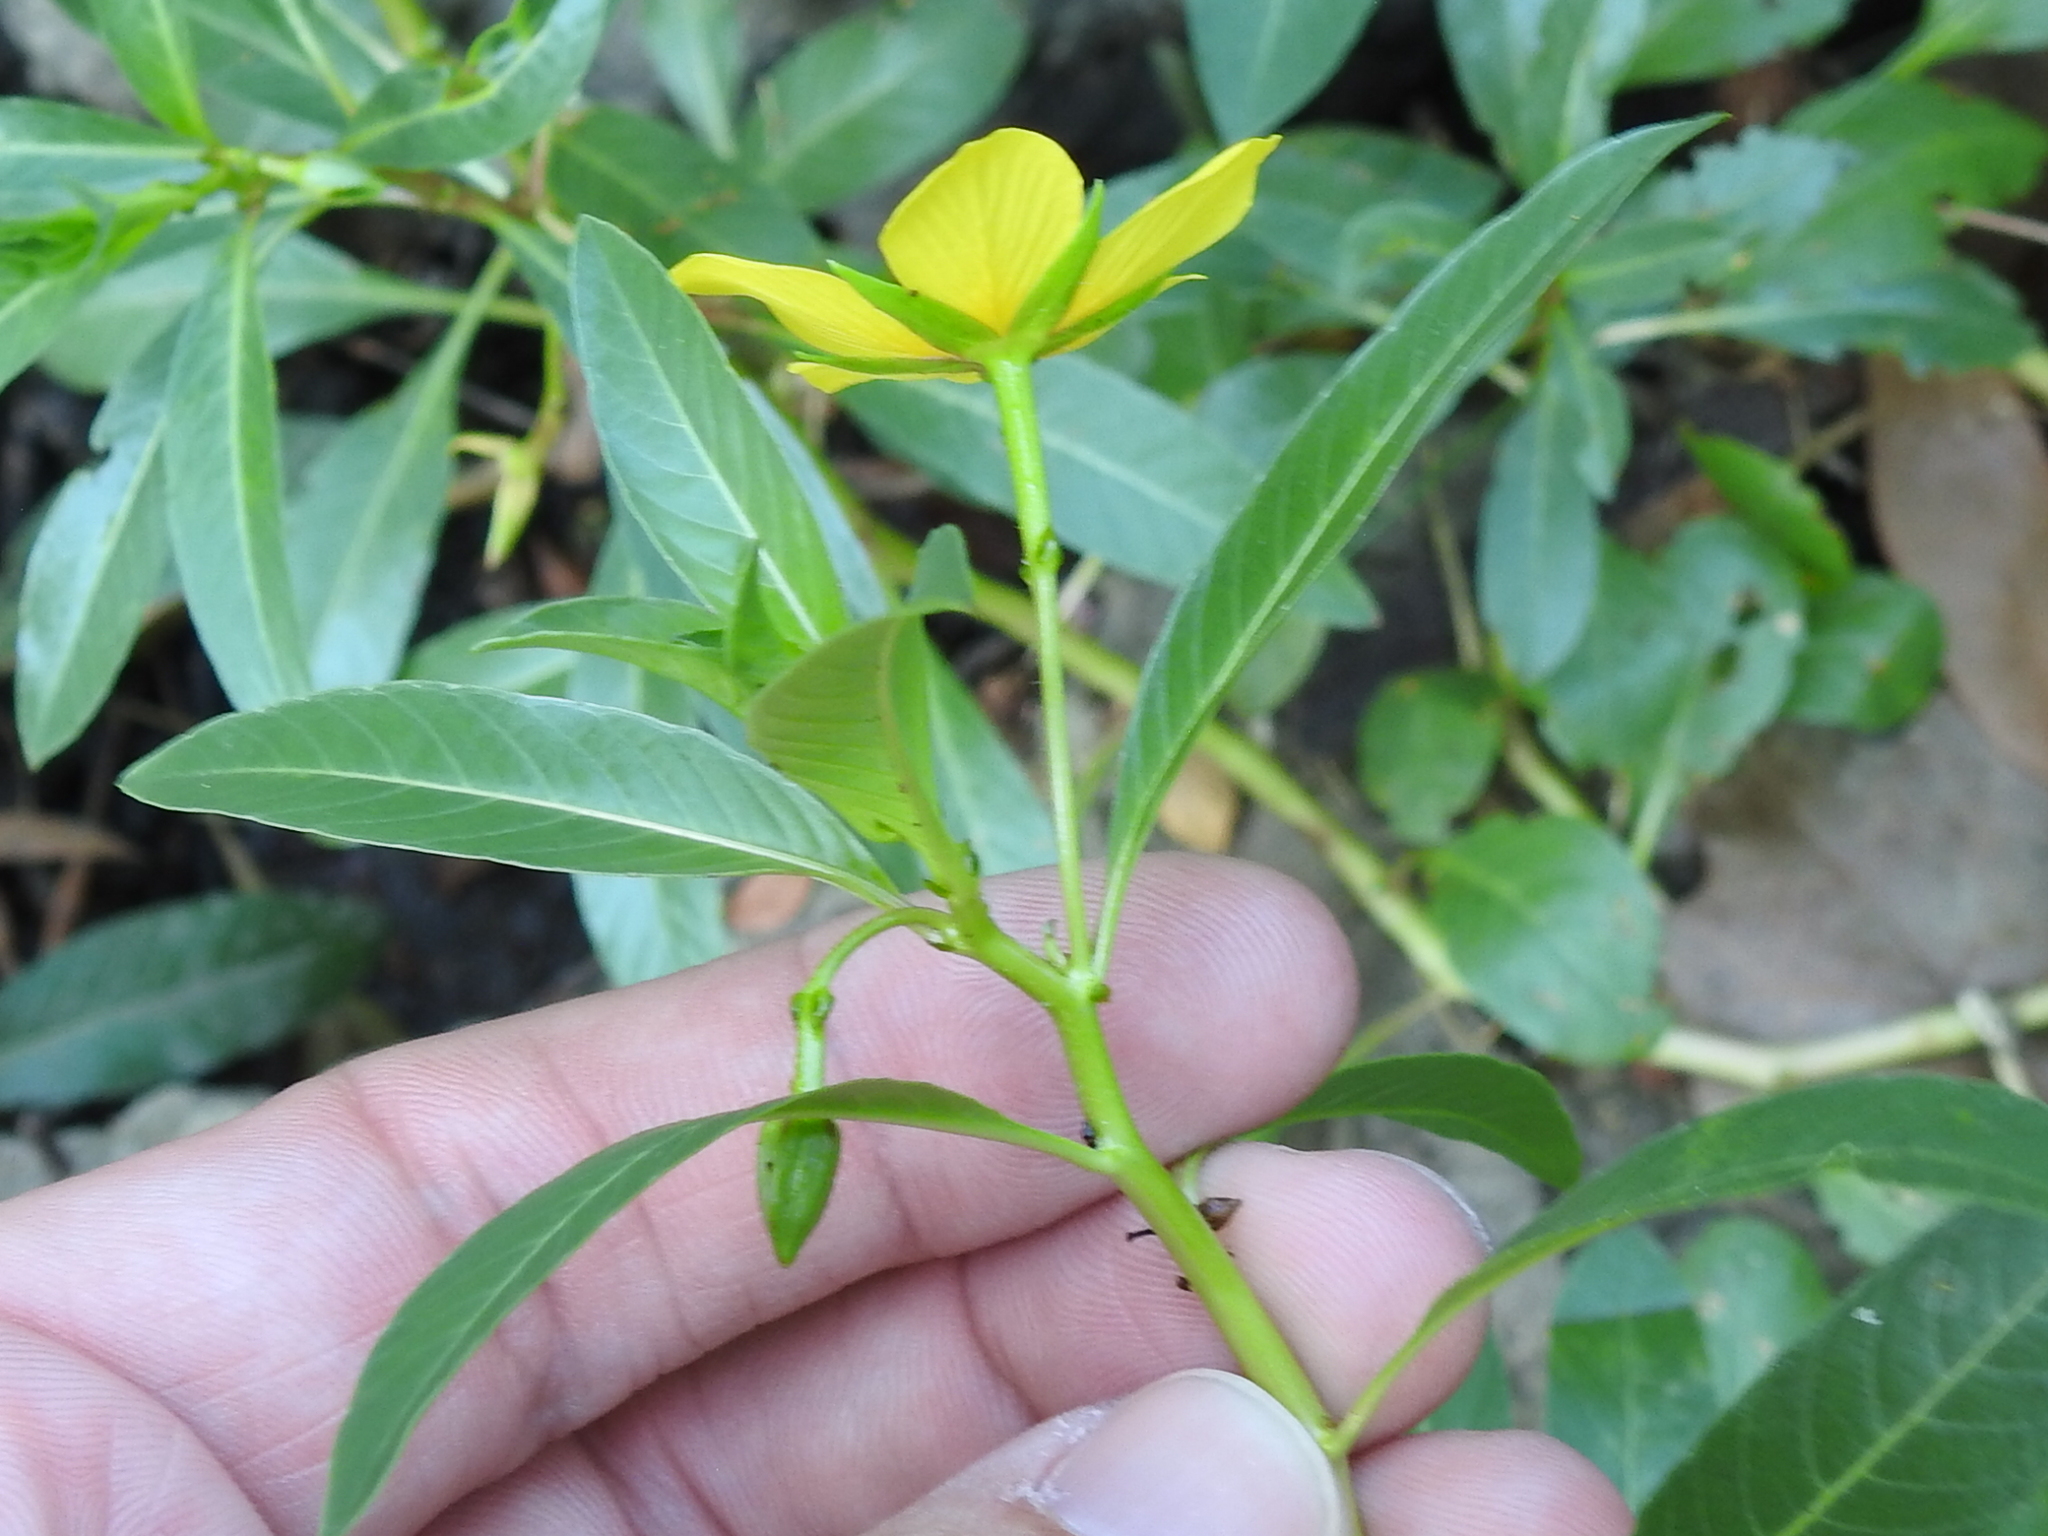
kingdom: Plantae
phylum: Tracheophyta
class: Magnoliopsida
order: Myrtales
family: Onagraceae
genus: Ludwigia
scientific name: Ludwigia peploides
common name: Floating primrose-willow
